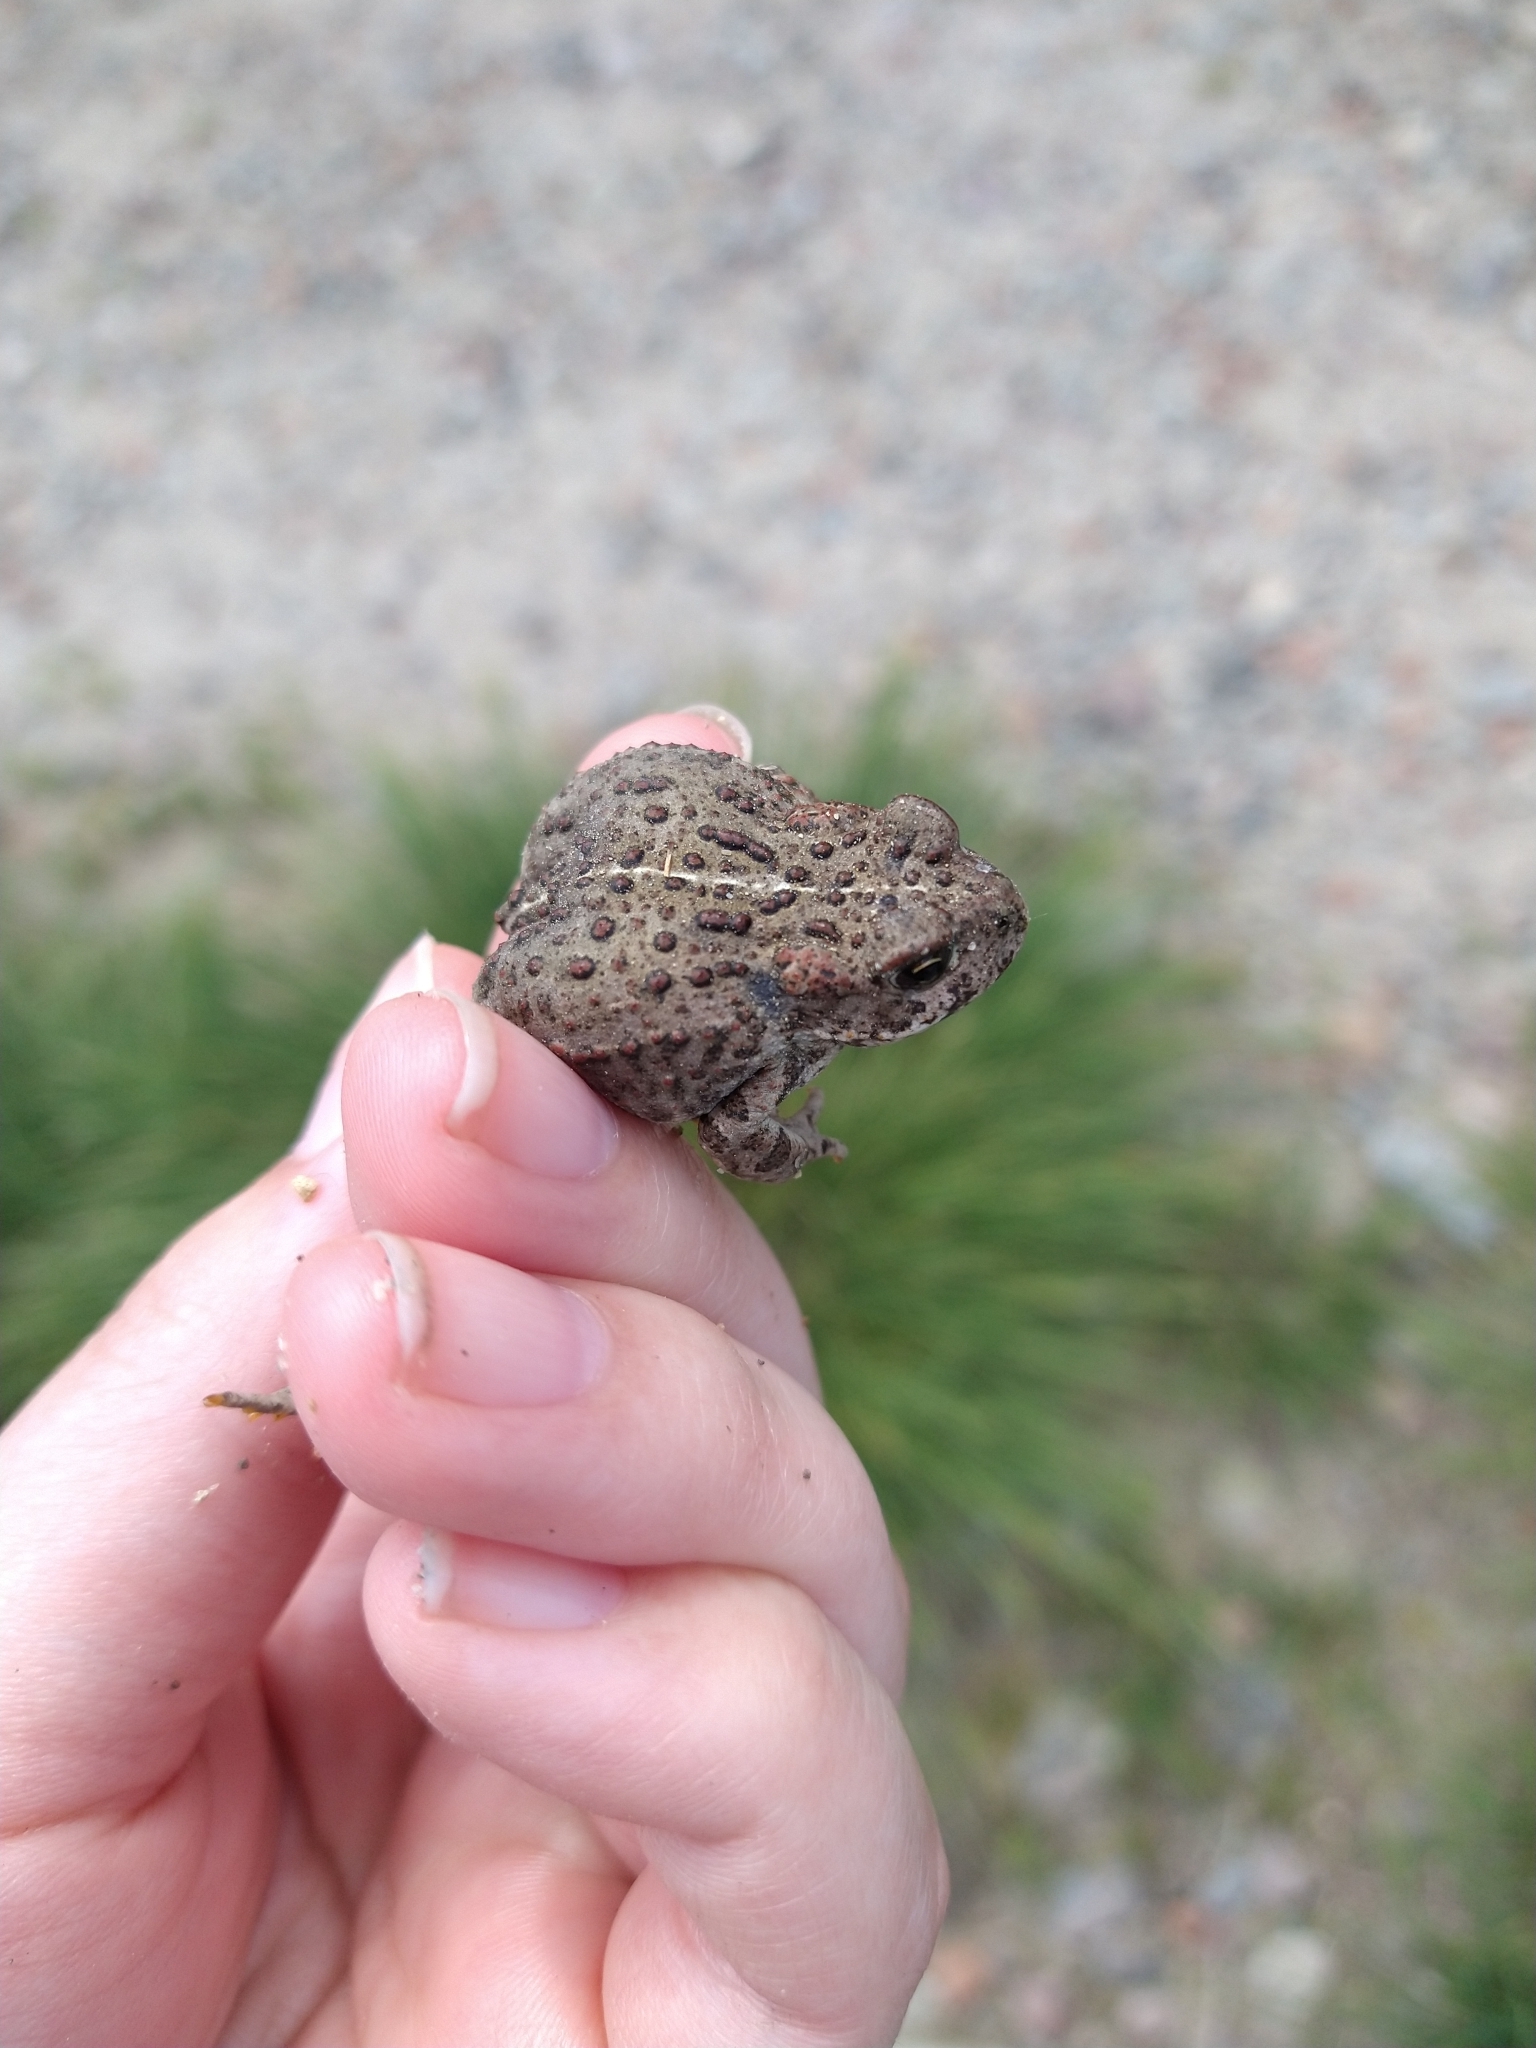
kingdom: Animalia
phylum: Chordata
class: Amphibia
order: Anura
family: Bufonidae
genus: Anaxyrus
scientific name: Anaxyrus boreas
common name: Western toad
